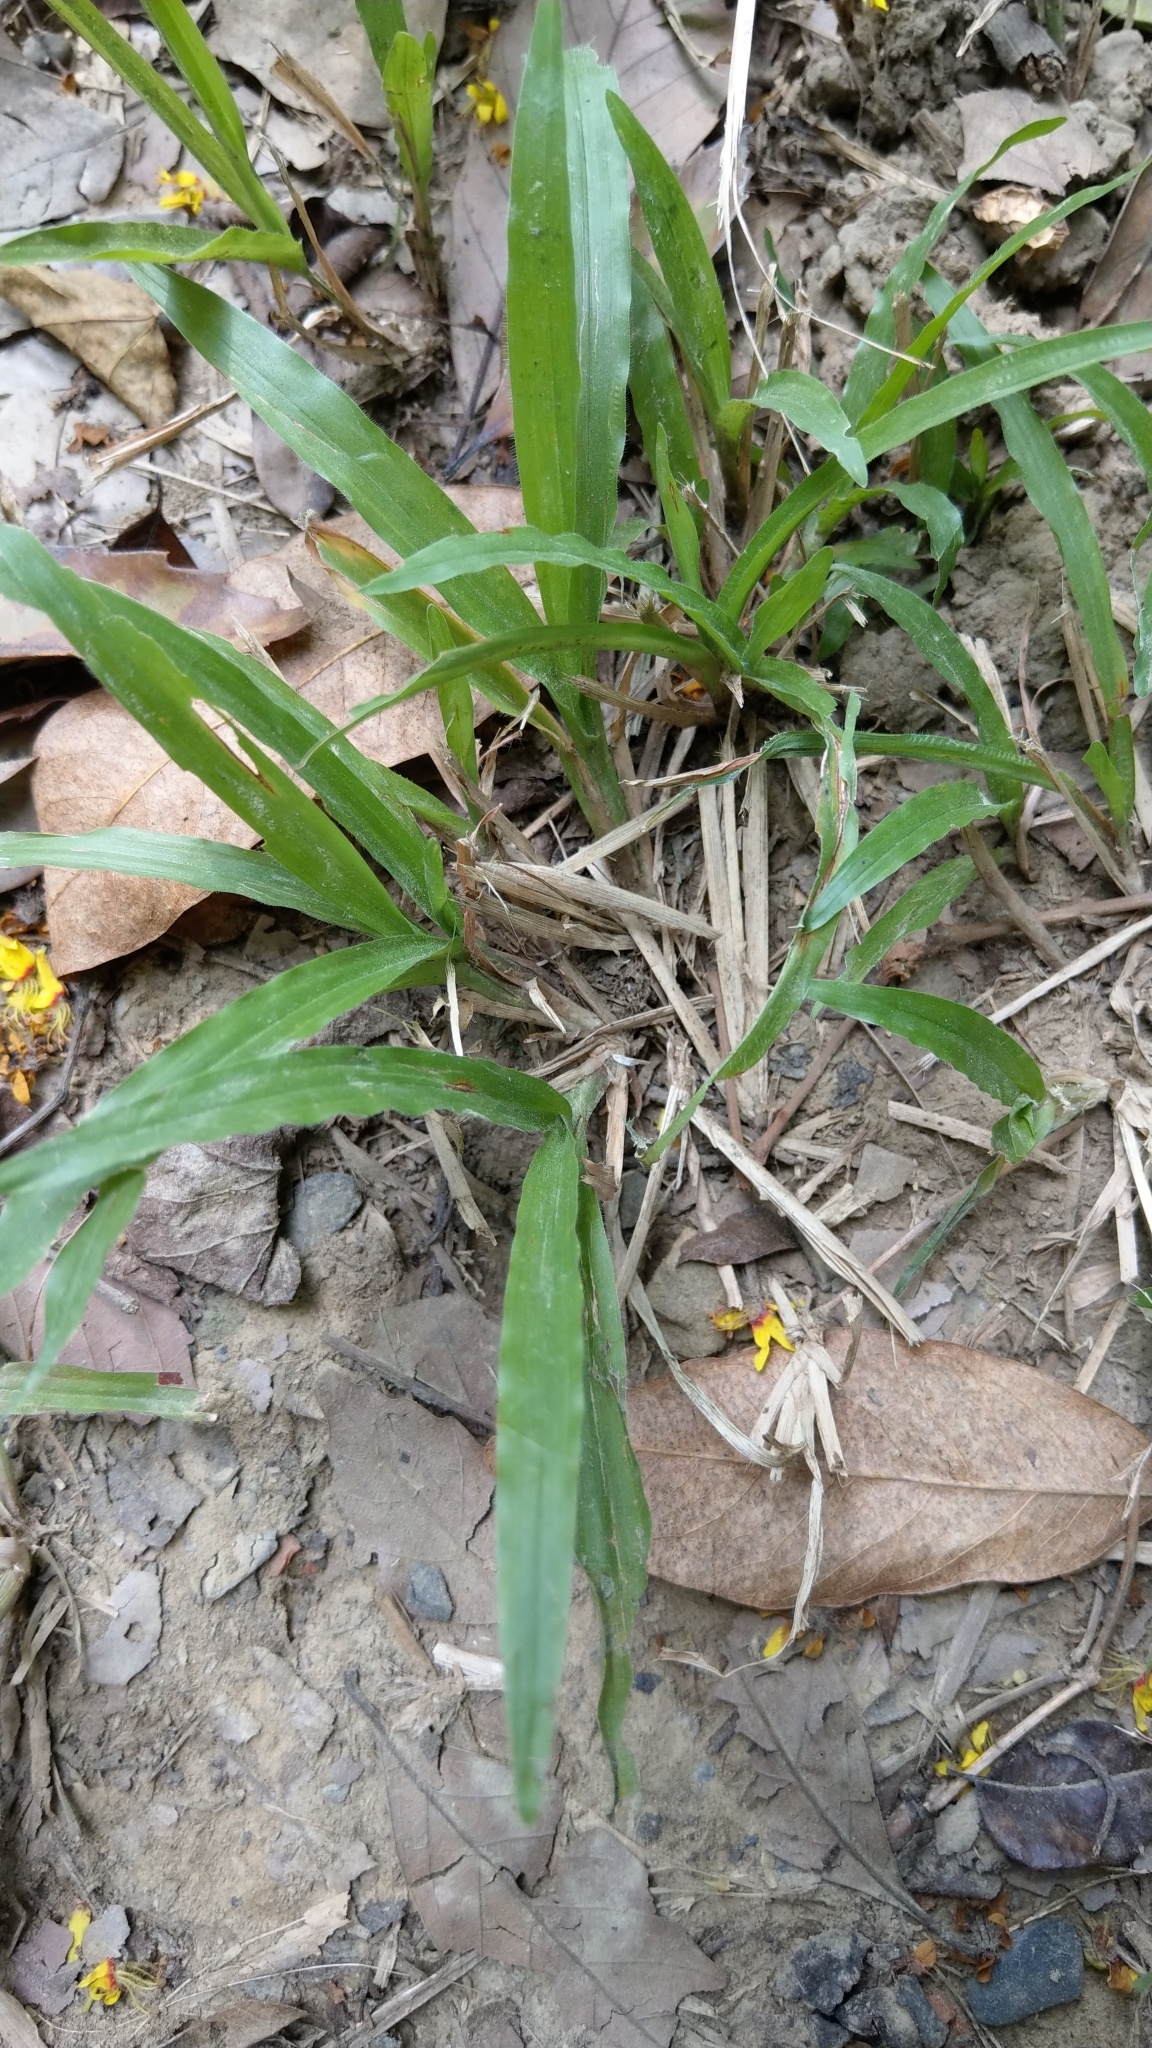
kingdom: Plantae
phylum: Tracheophyta
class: Liliopsida
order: Poales
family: Poaceae
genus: Axonopus
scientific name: Axonopus compressus
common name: American carpet grass
